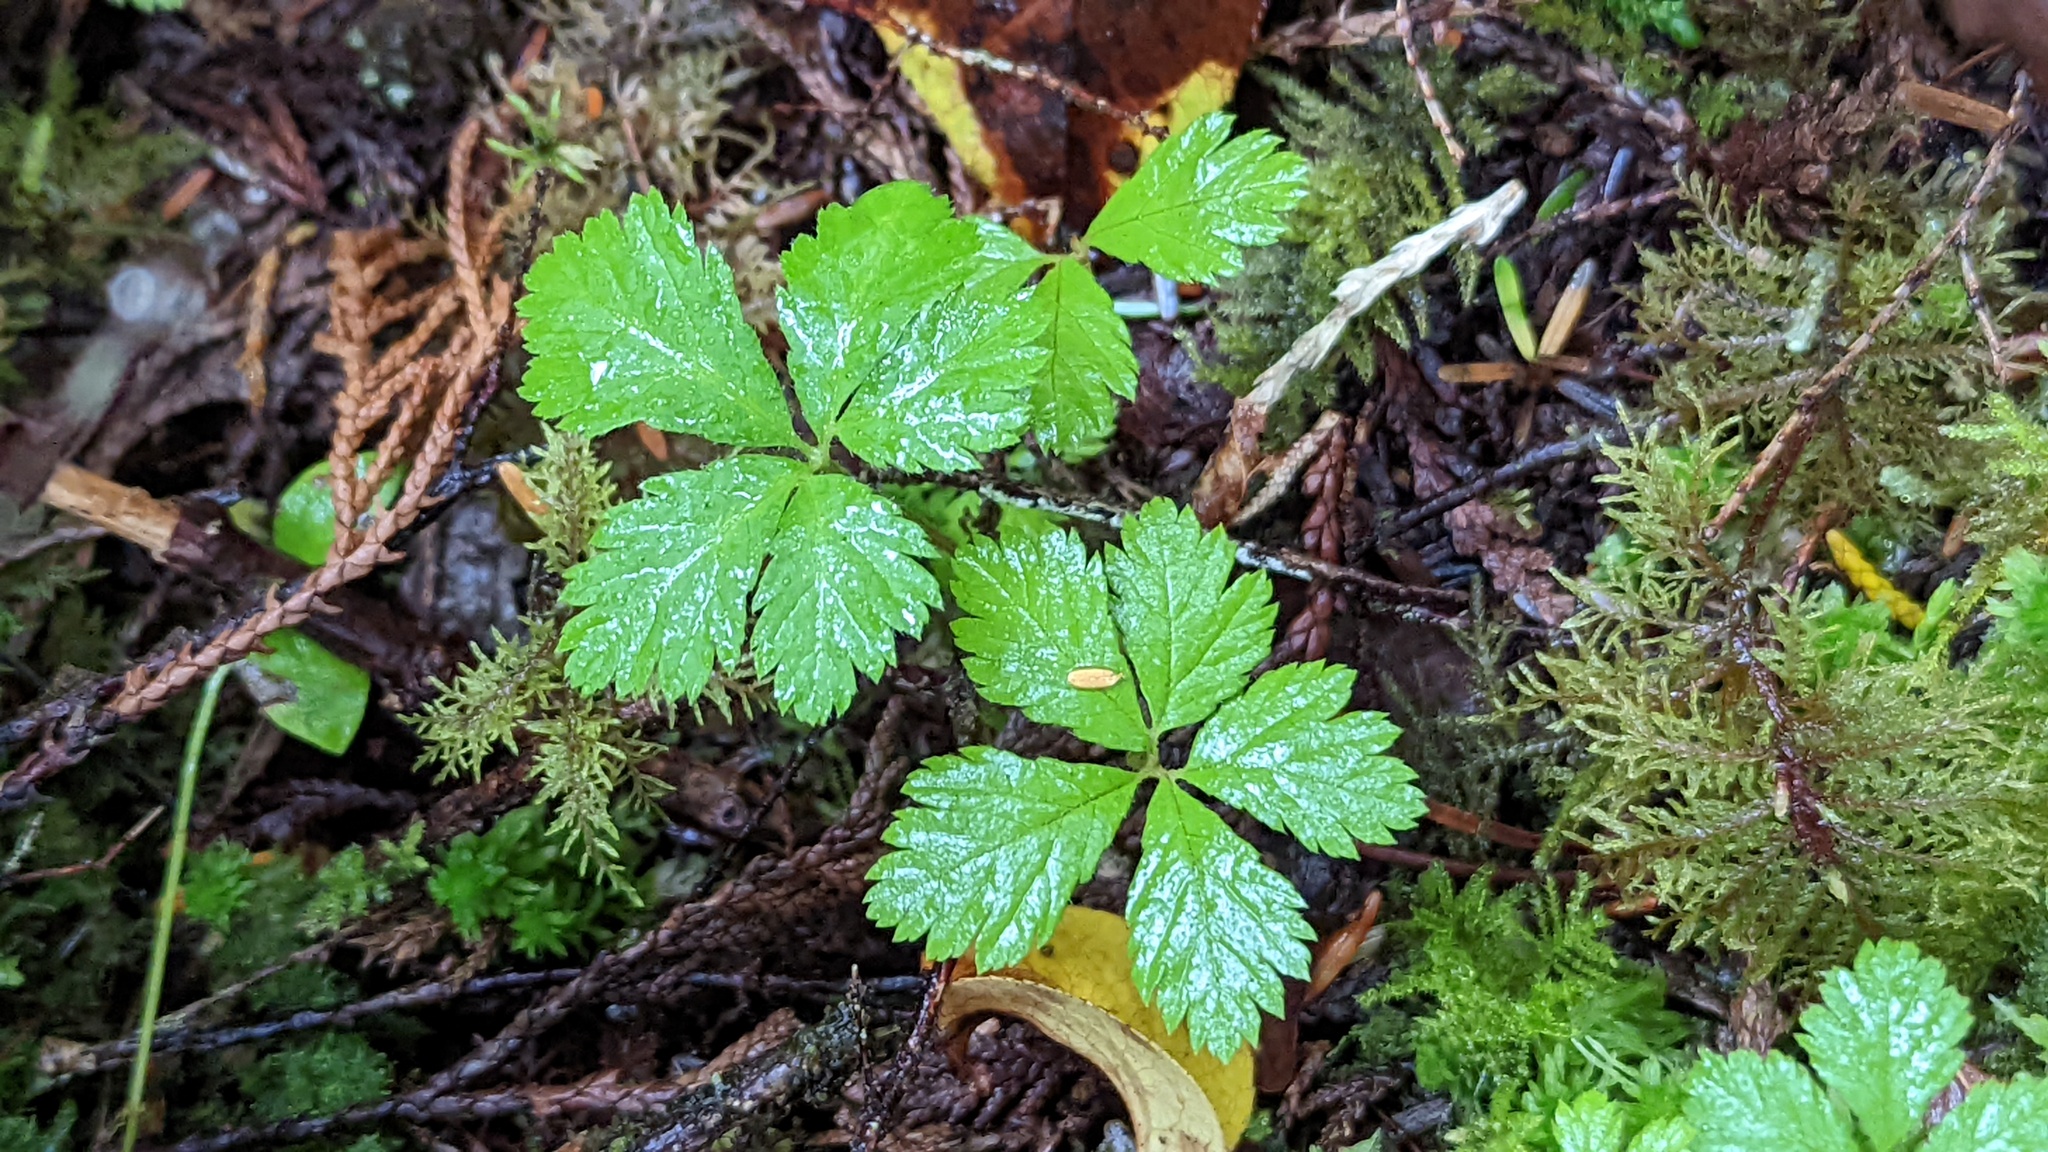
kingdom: Plantae
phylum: Tracheophyta
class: Magnoliopsida
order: Rosales
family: Rosaceae
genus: Rubus
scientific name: Rubus pedatus
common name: Creeping raspberry
